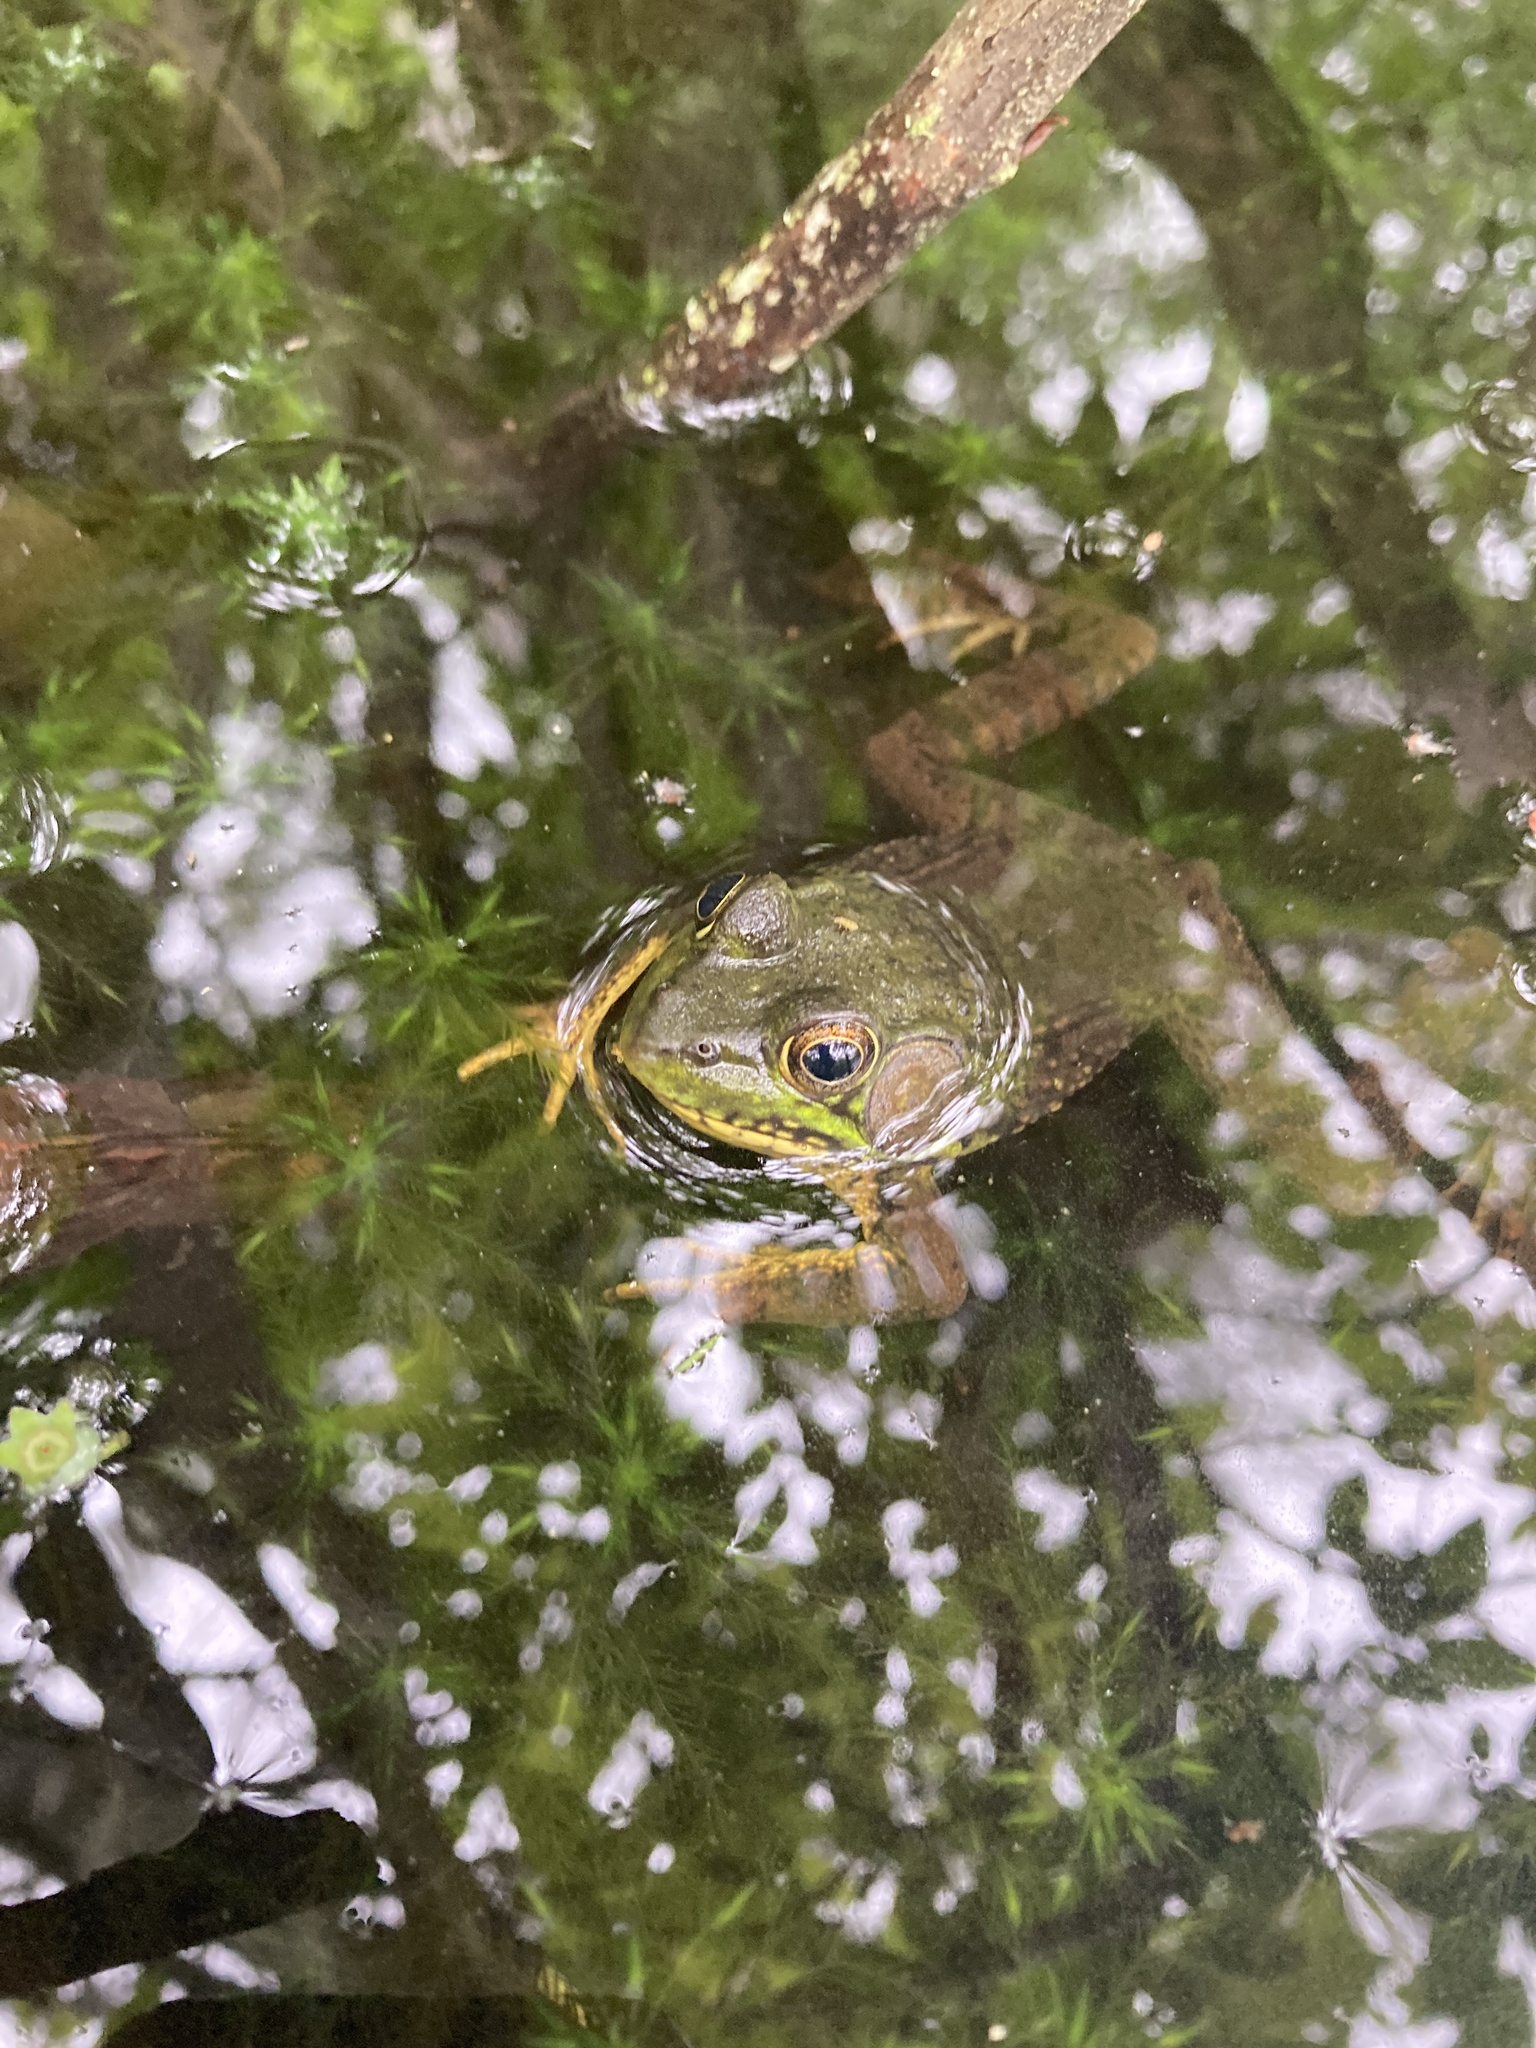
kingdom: Animalia
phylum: Chordata
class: Amphibia
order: Anura
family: Ranidae
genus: Lithobates
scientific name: Lithobates clamitans
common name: Green frog
